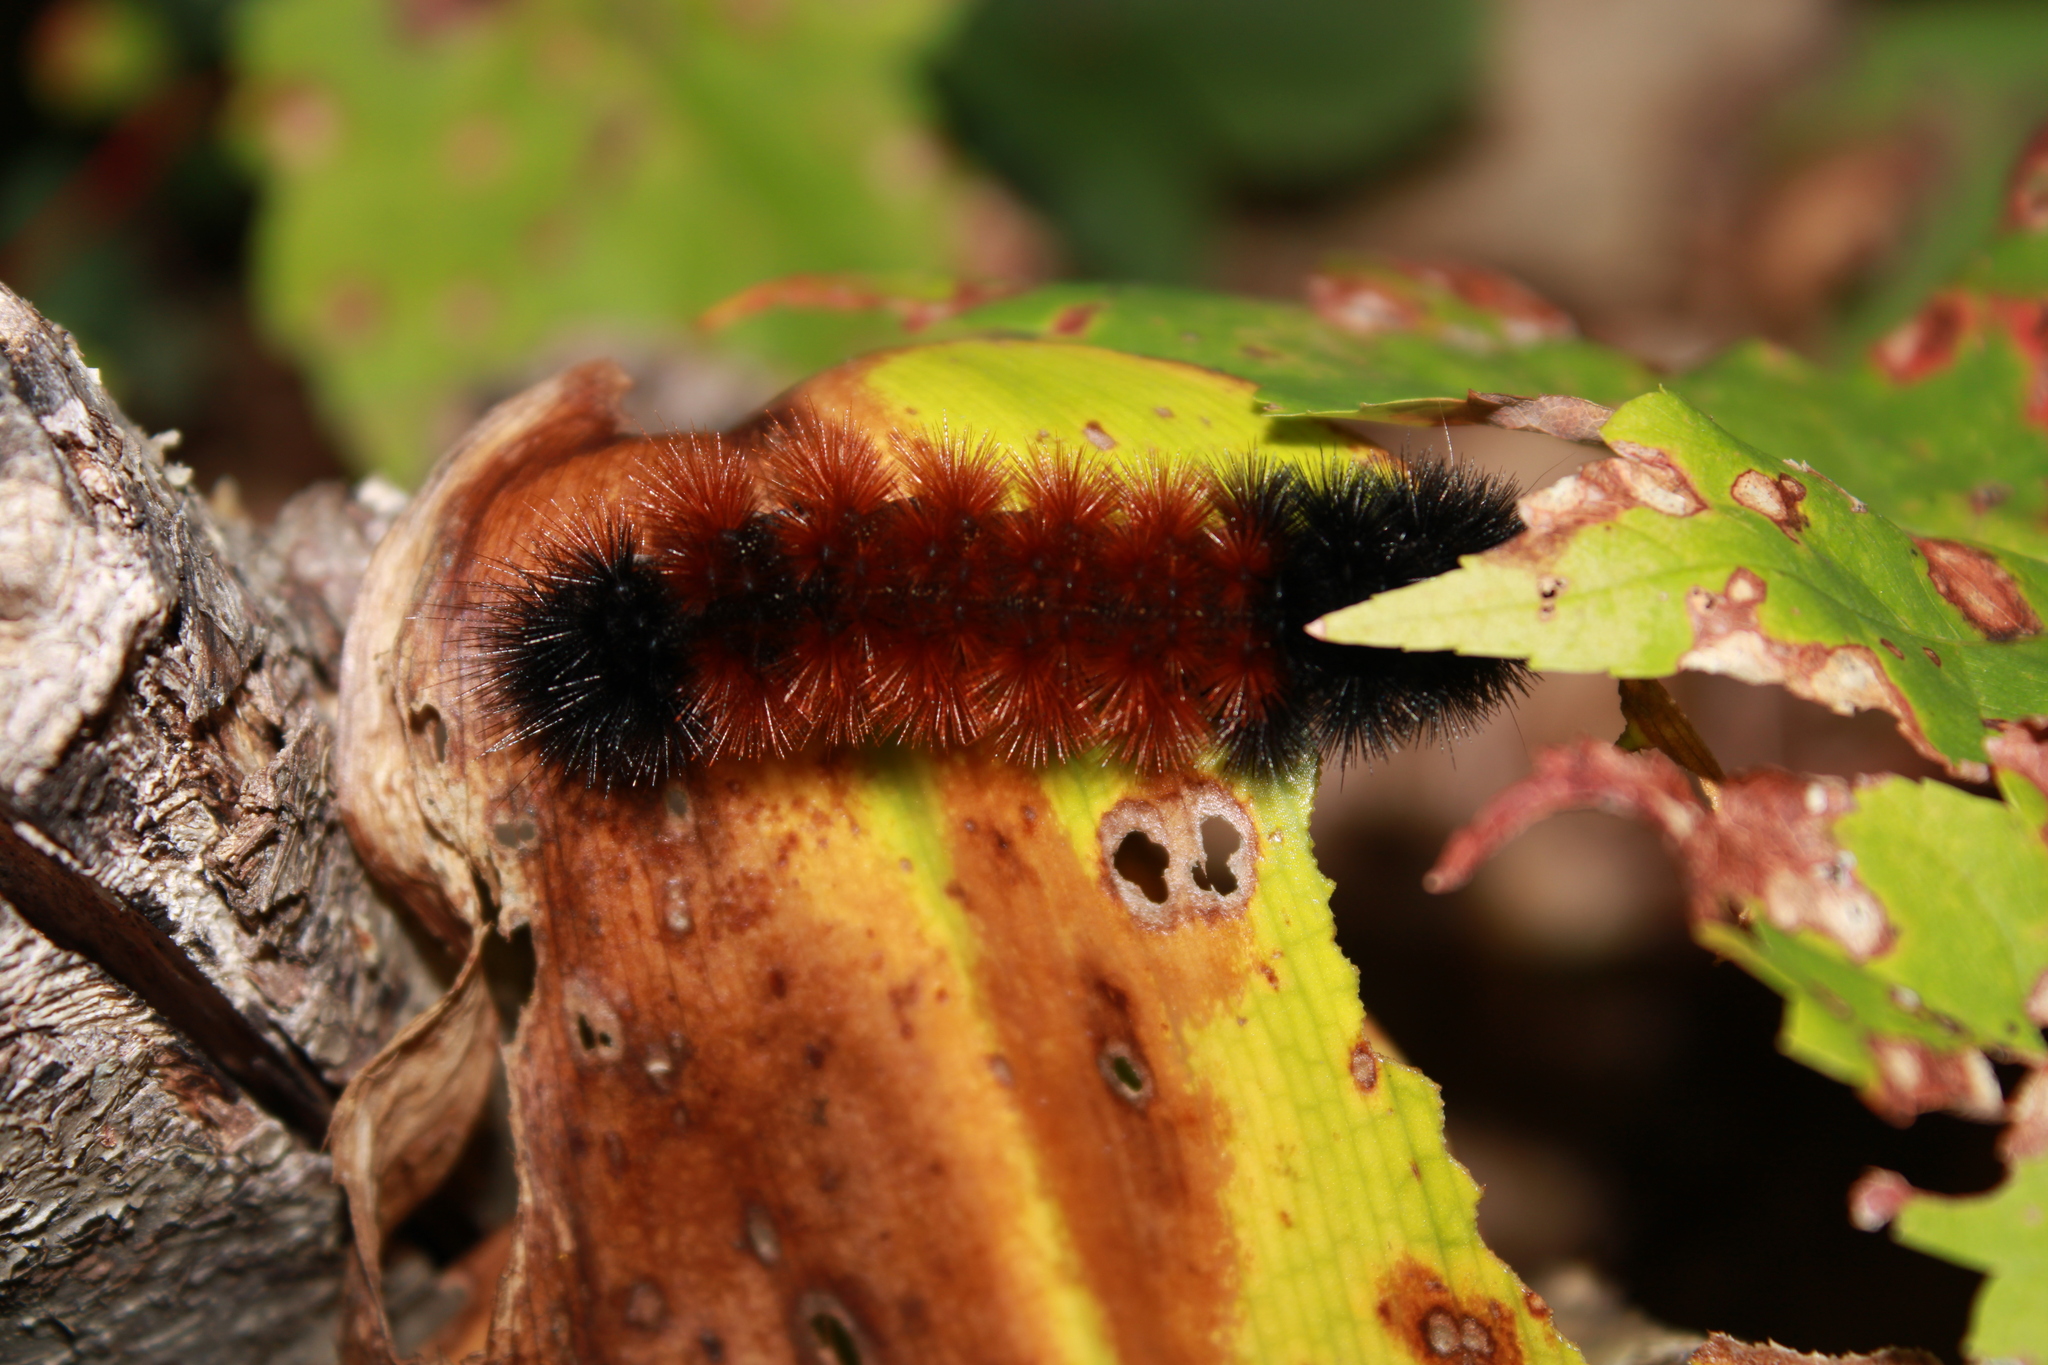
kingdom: Animalia
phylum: Arthropoda
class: Insecta
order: Lepidoptera
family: Erebidae
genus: Pyrrharctia
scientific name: Pyrrharctia isabella
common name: Isabella tiger moth
